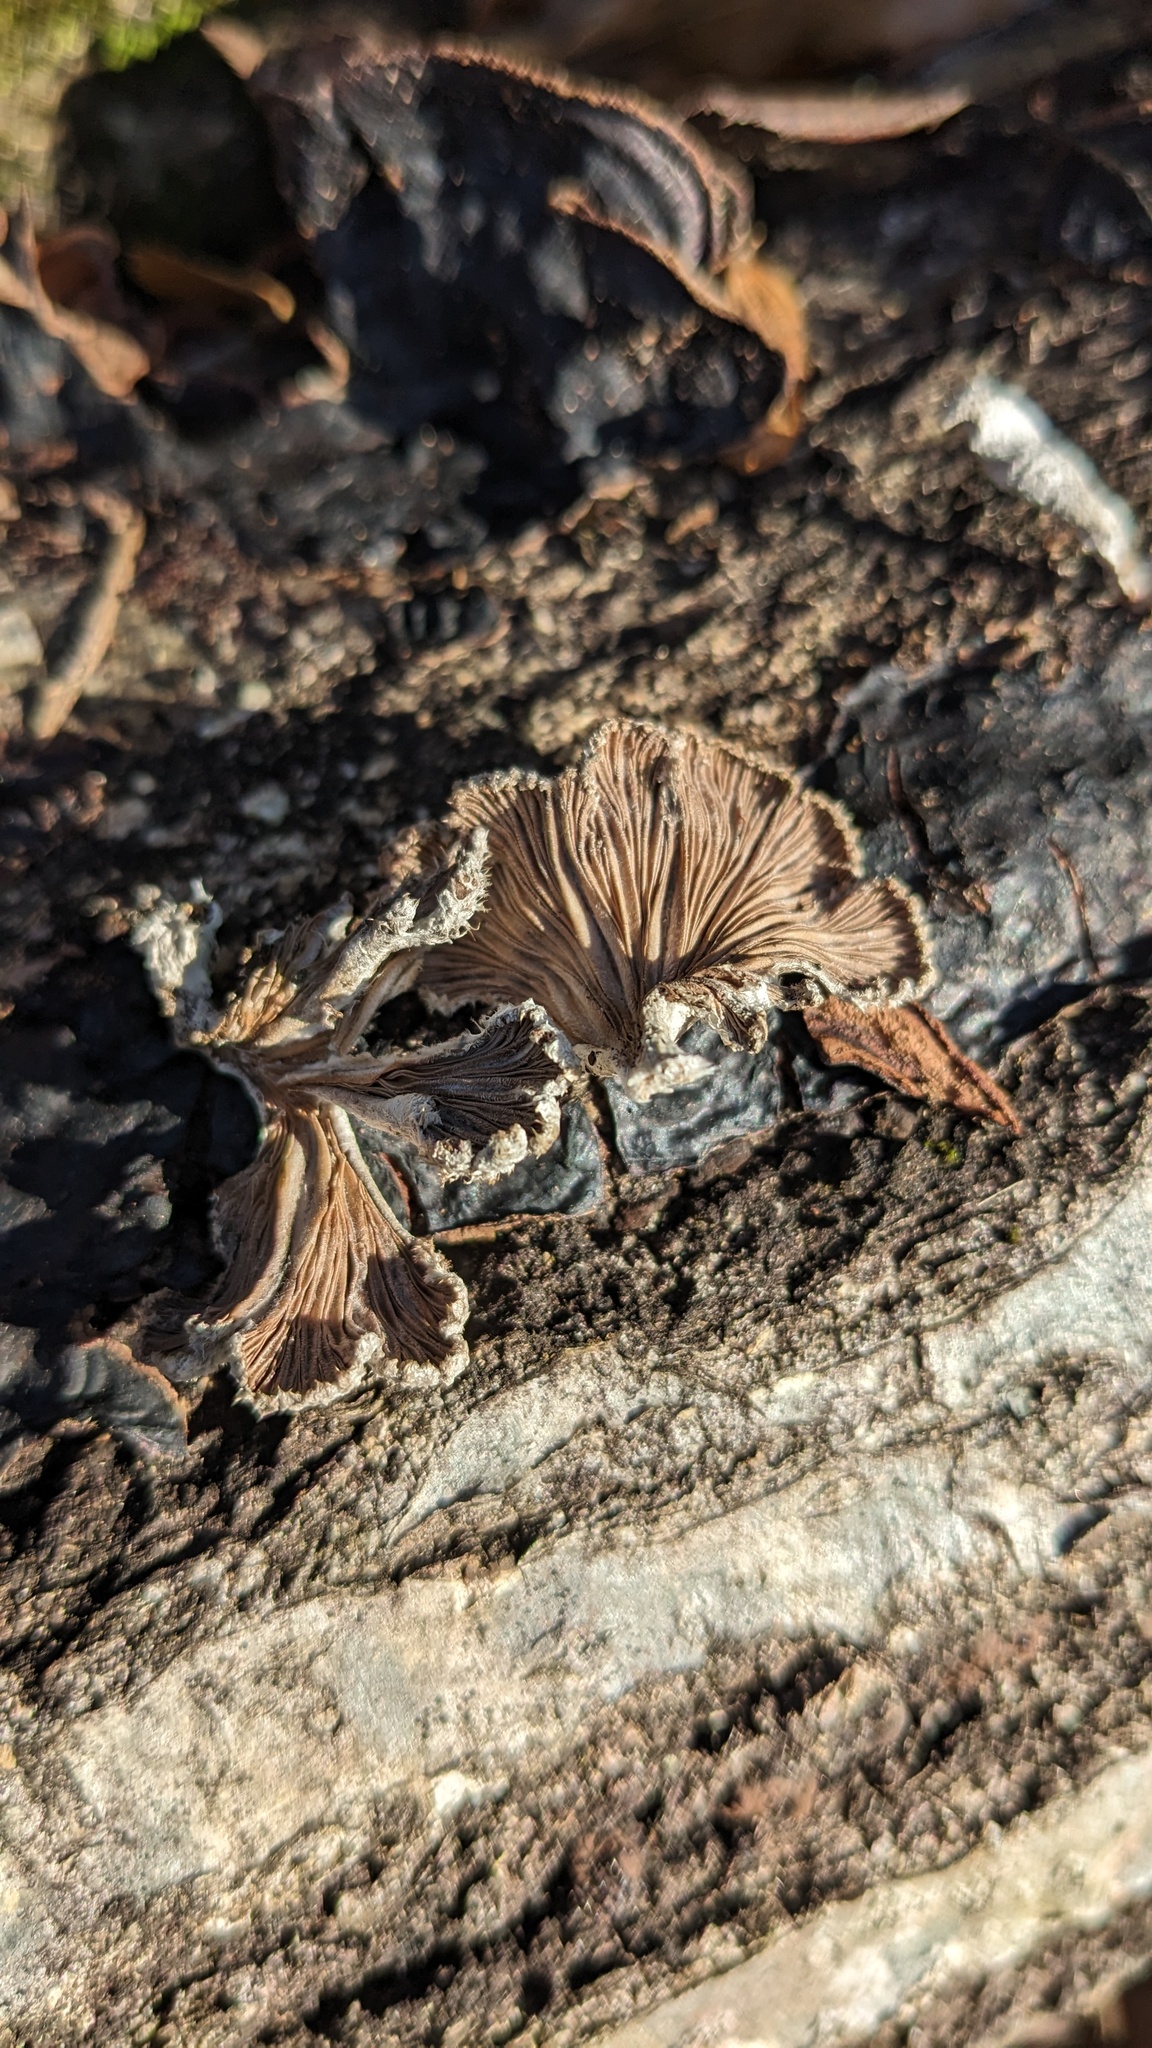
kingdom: Fungi
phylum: Basidiomycota
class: Agaricomycetes
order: Agaricales
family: Schizophyllaceae
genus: Schizophyllum
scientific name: Schizophyllum commune
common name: Common porecrust
